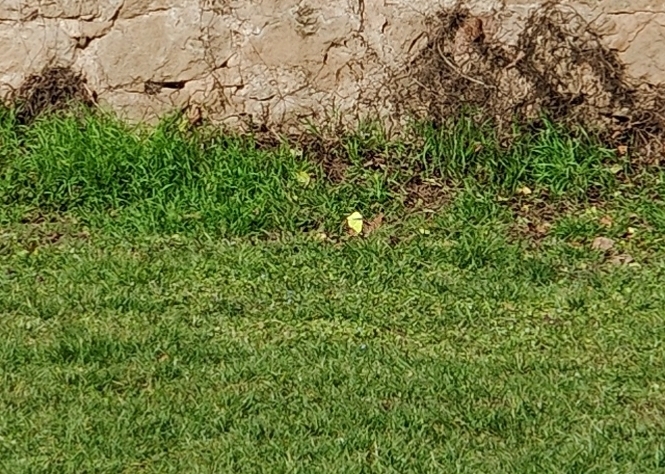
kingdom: Animalia
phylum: Arthropoda
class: Insecta
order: Lepidoptera
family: Pieridae
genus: Gonepteryx
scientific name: Gonepteryx rhamni
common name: Brimstone
